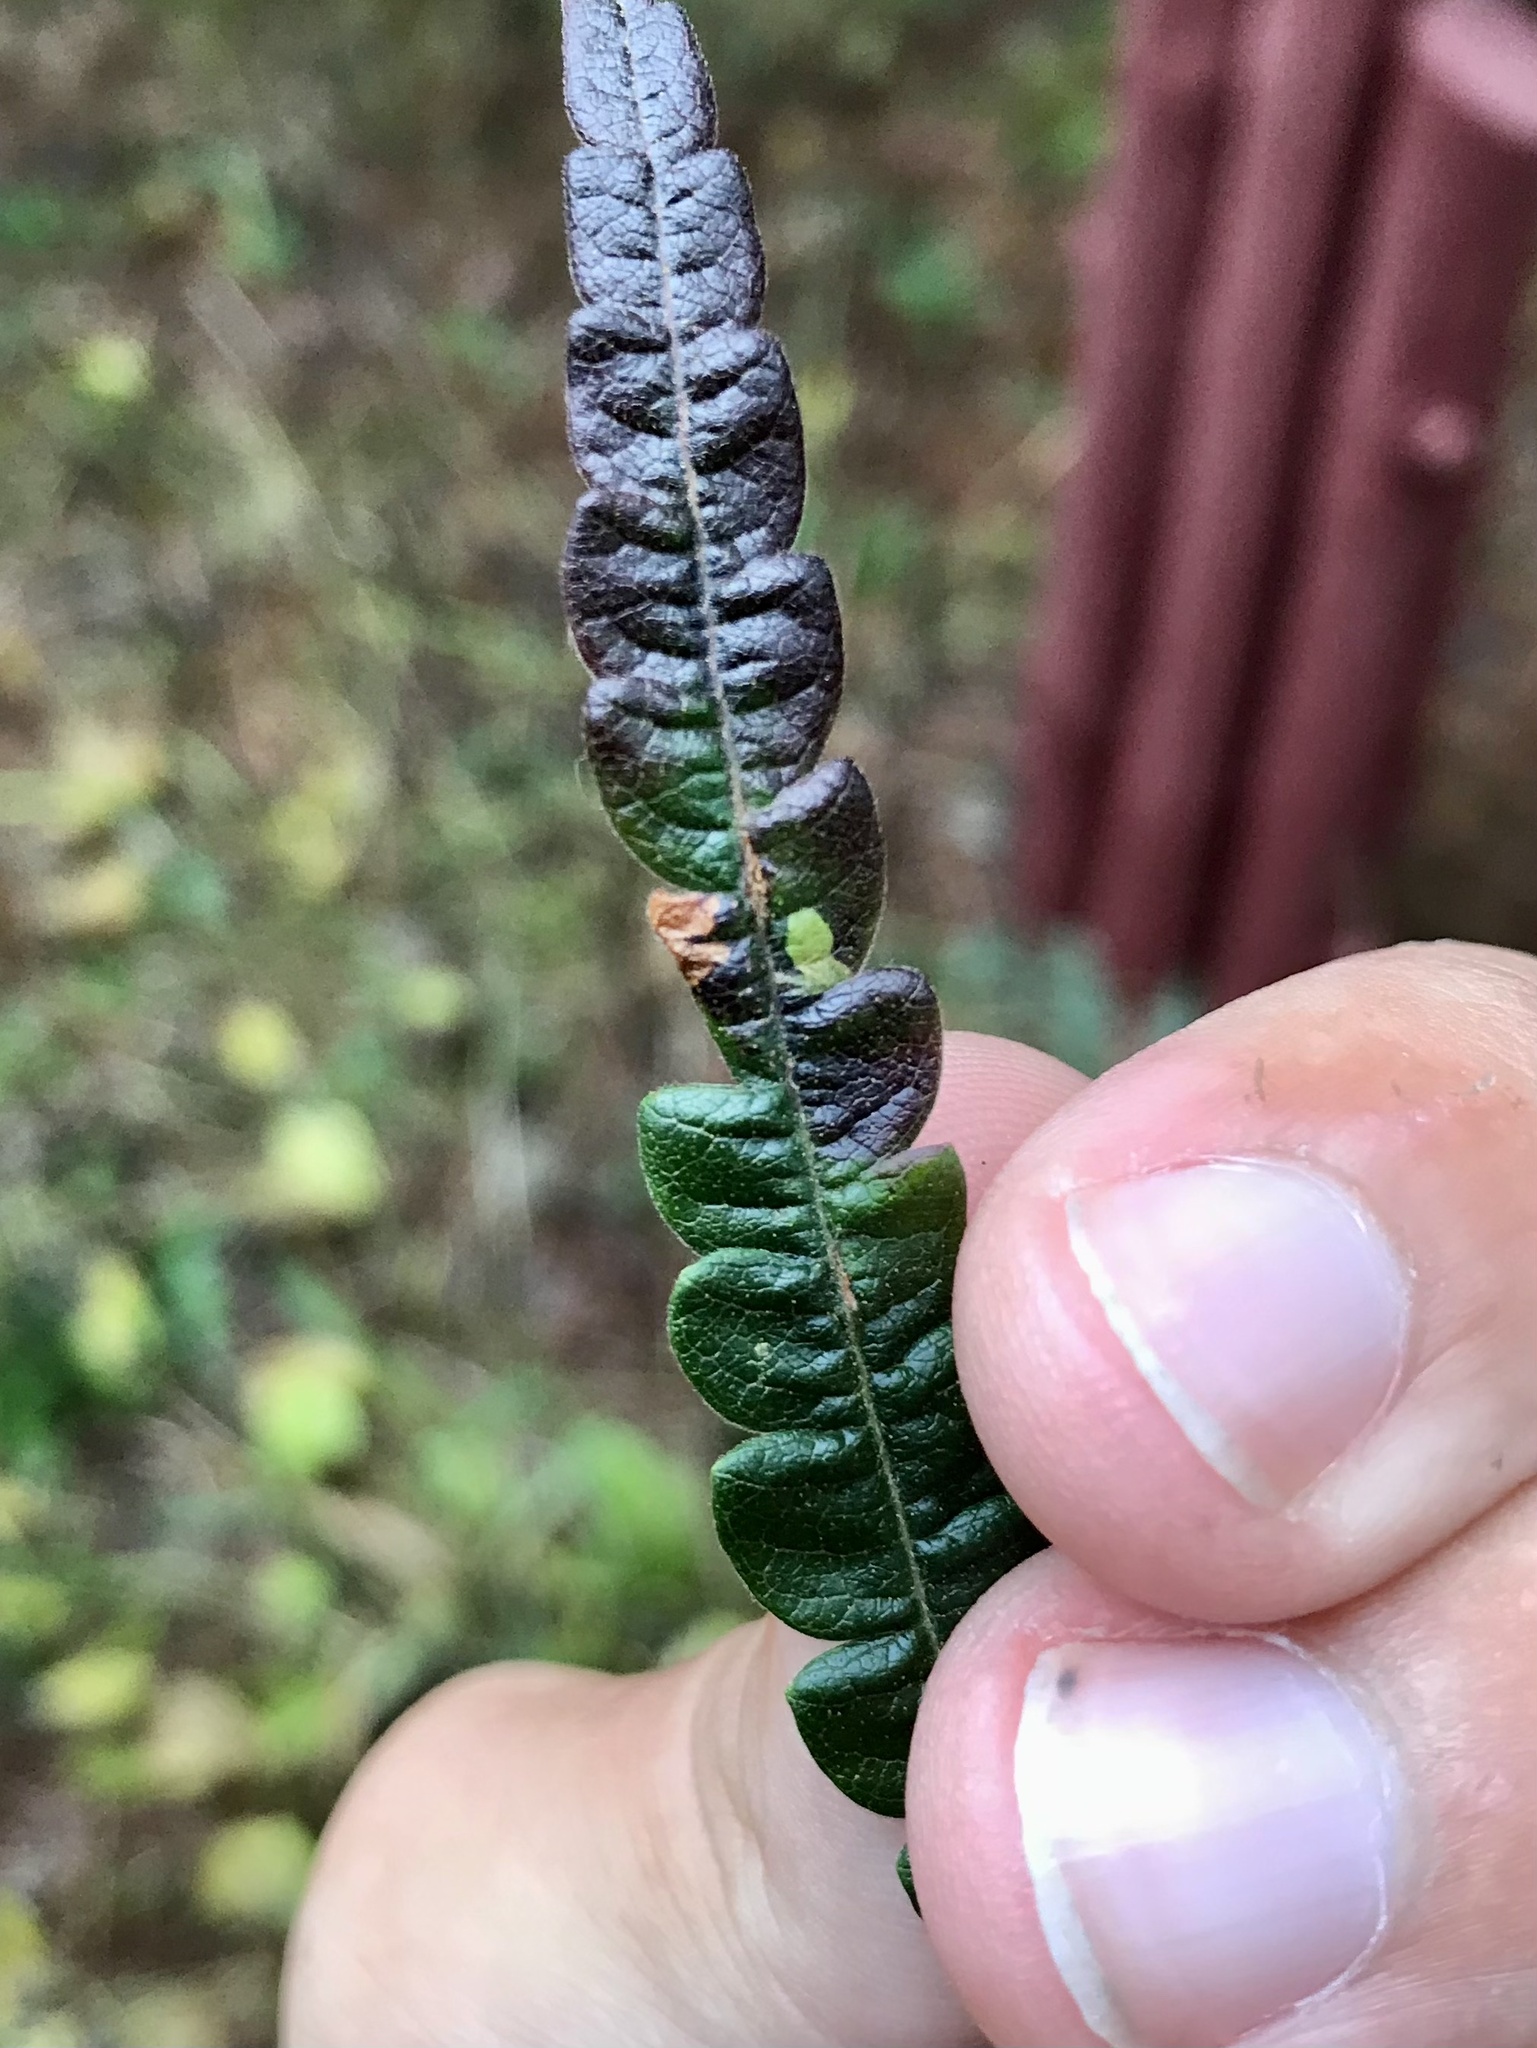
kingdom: Animalia
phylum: Arthropoda
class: Insecta
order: Lepidoptera
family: Heliozelidae
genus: Antispila
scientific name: Antispila argentifera
